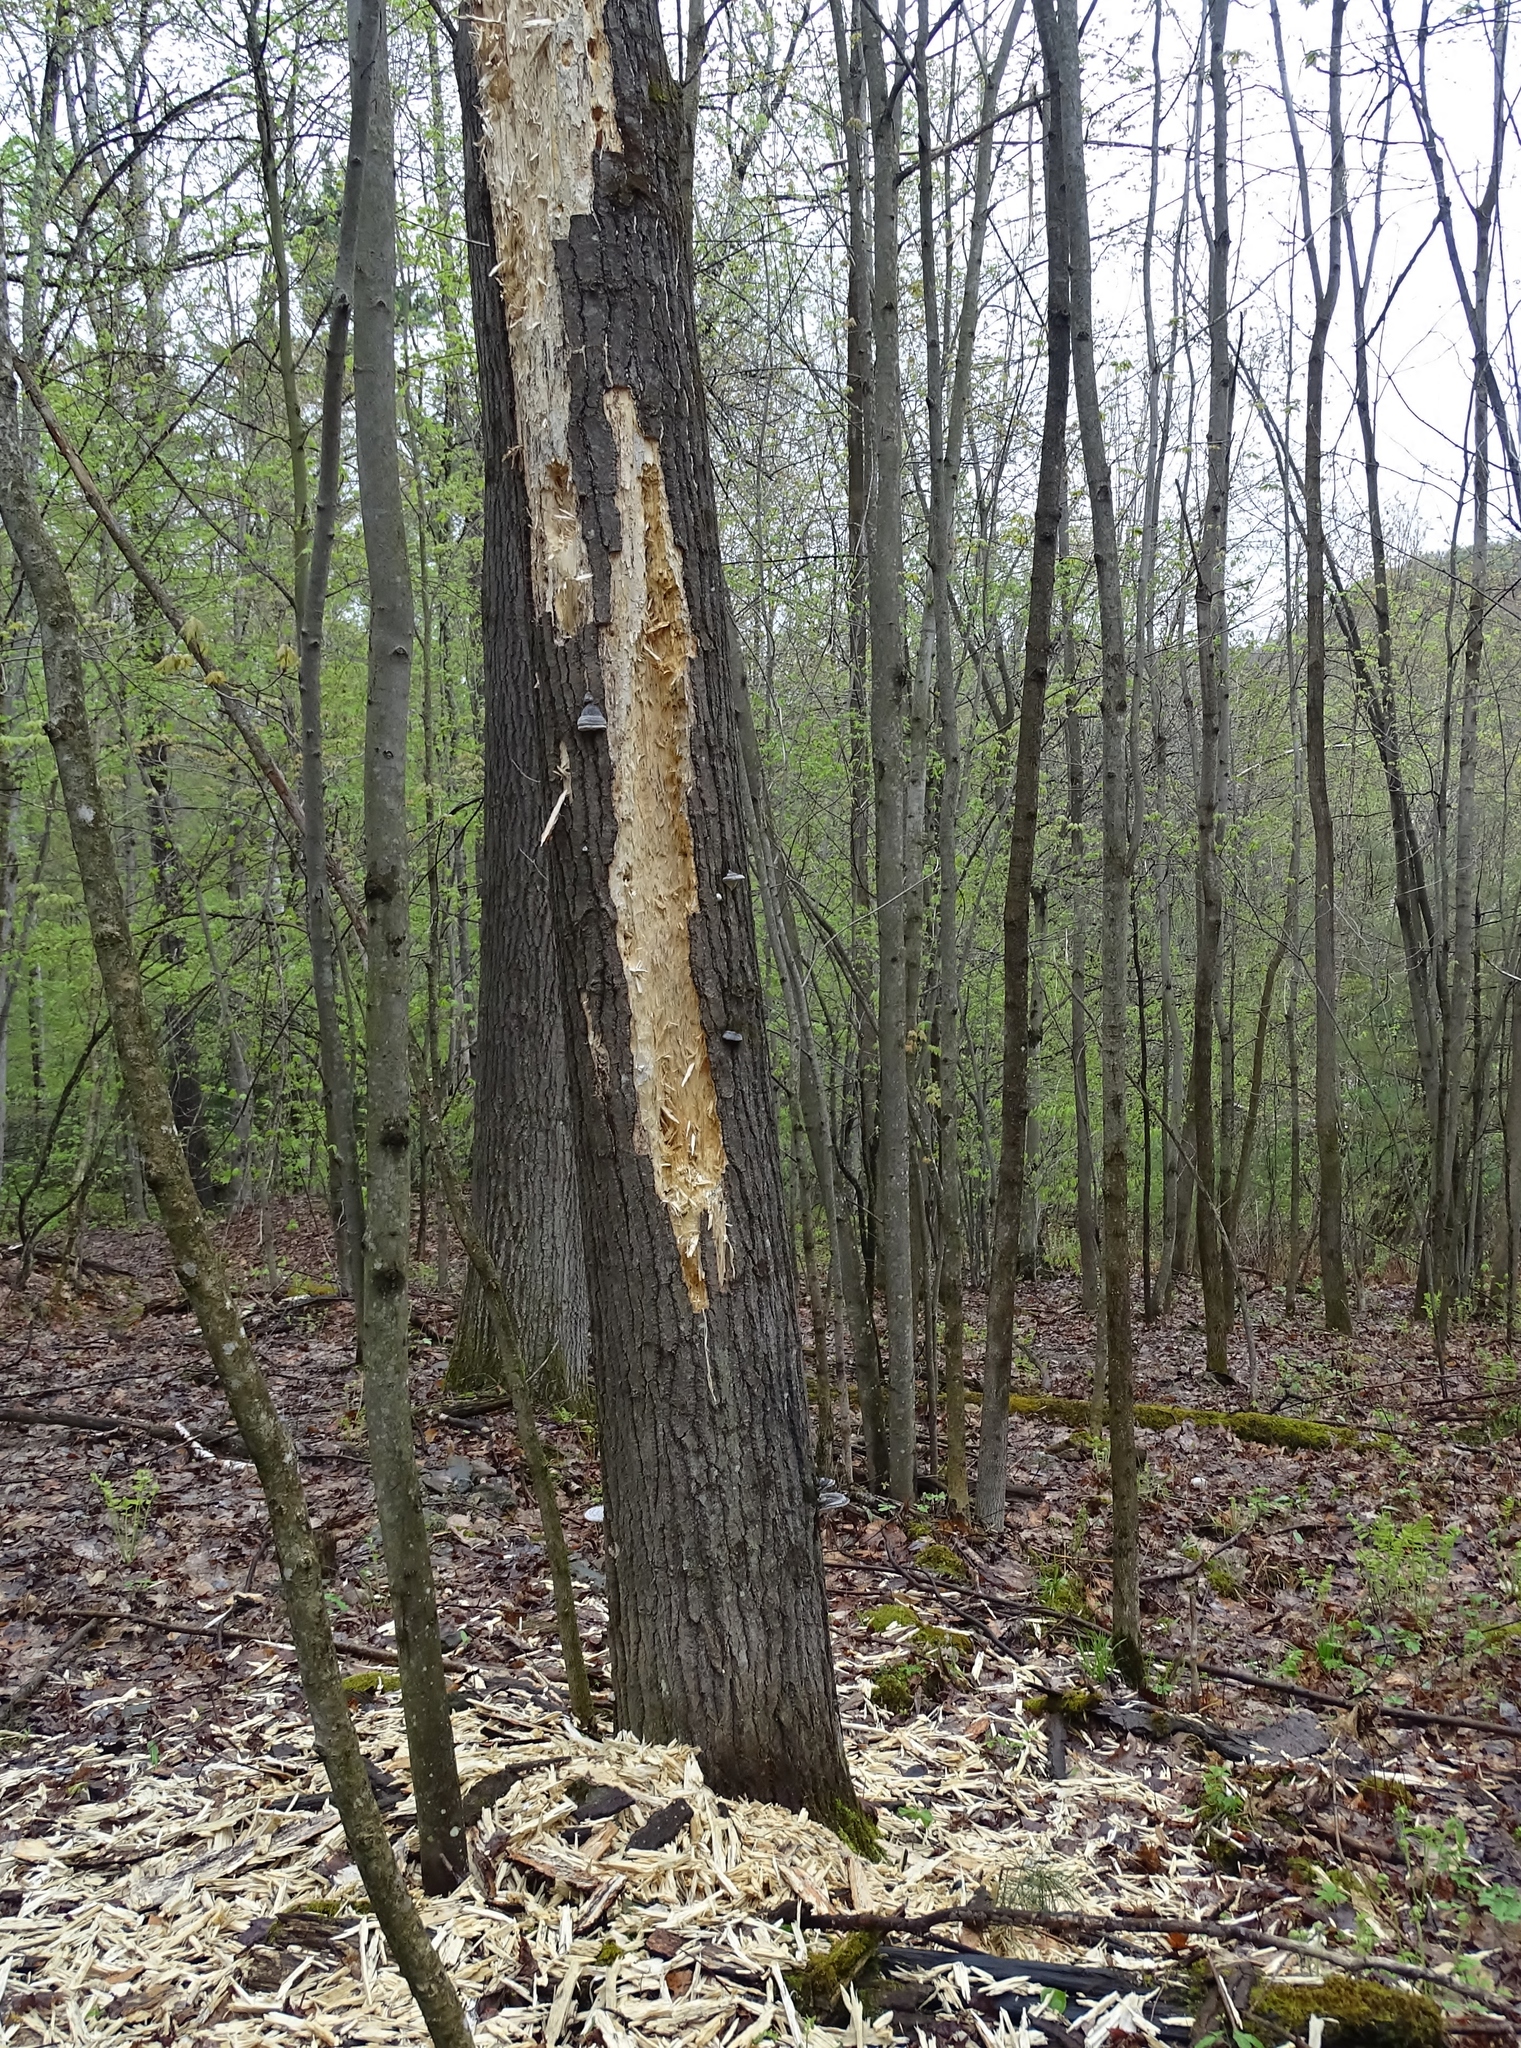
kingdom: Animalia
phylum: Chordata
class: Aves
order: Piciformes
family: Picidae
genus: Dryocopus
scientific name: Dryocopus pileatus
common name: Pileated woodpecker
